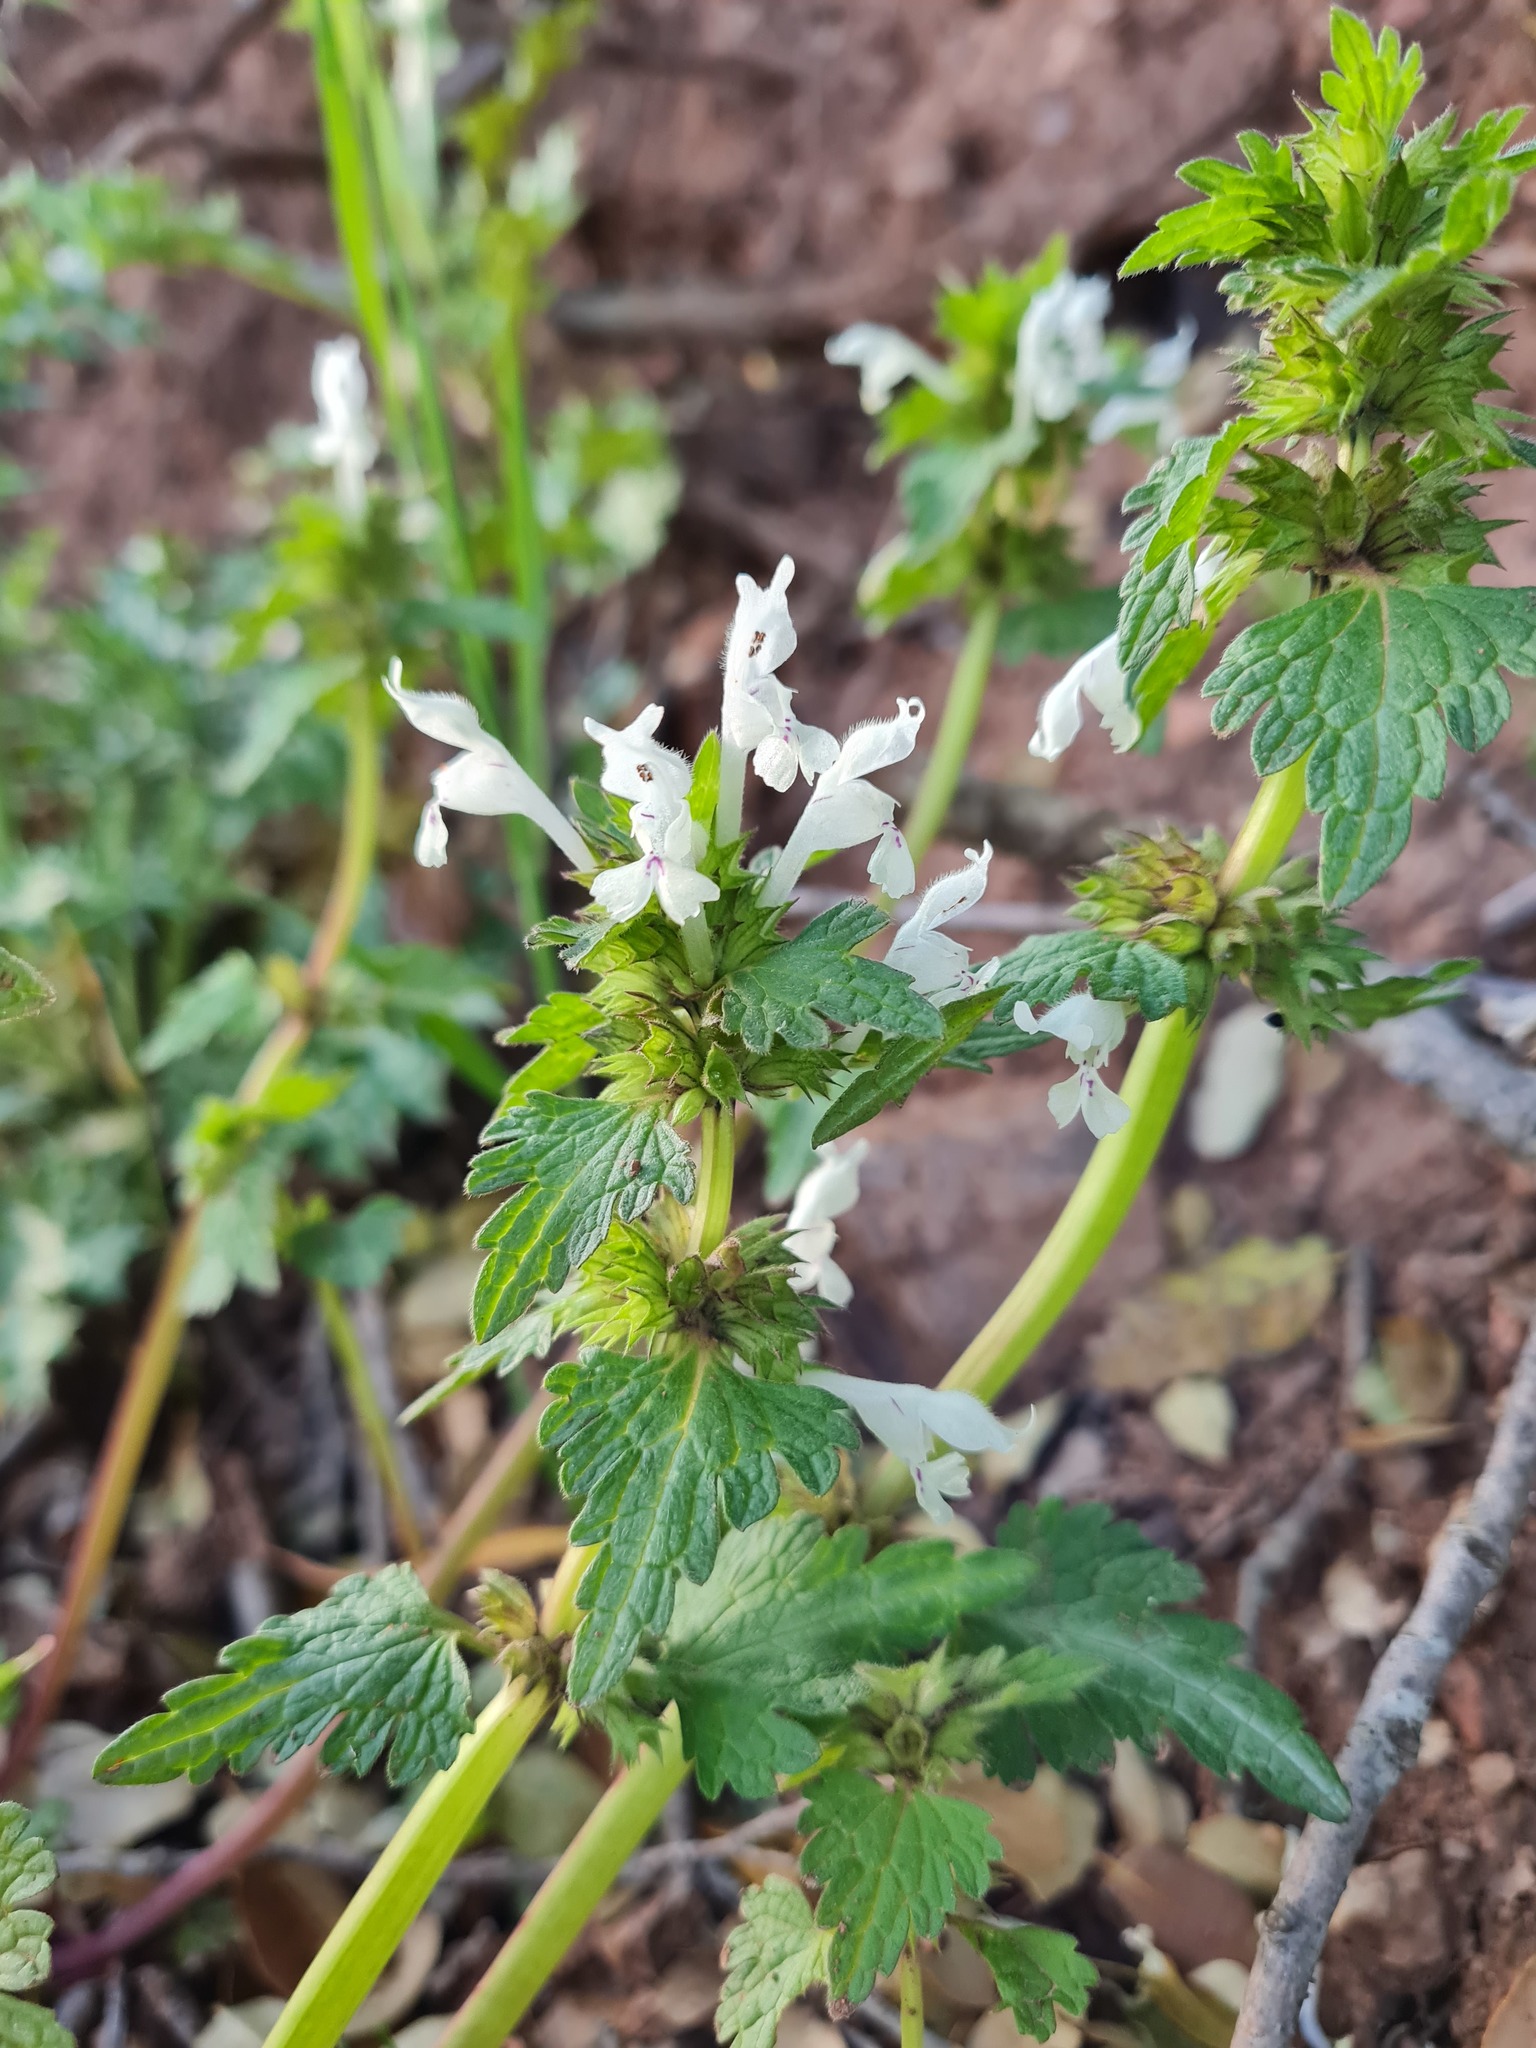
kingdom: Plantae
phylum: Tracheophyta
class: Magnoliopsida
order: Lamiales
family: Lamiaceae
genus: Lamium
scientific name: Lamium bifidum
